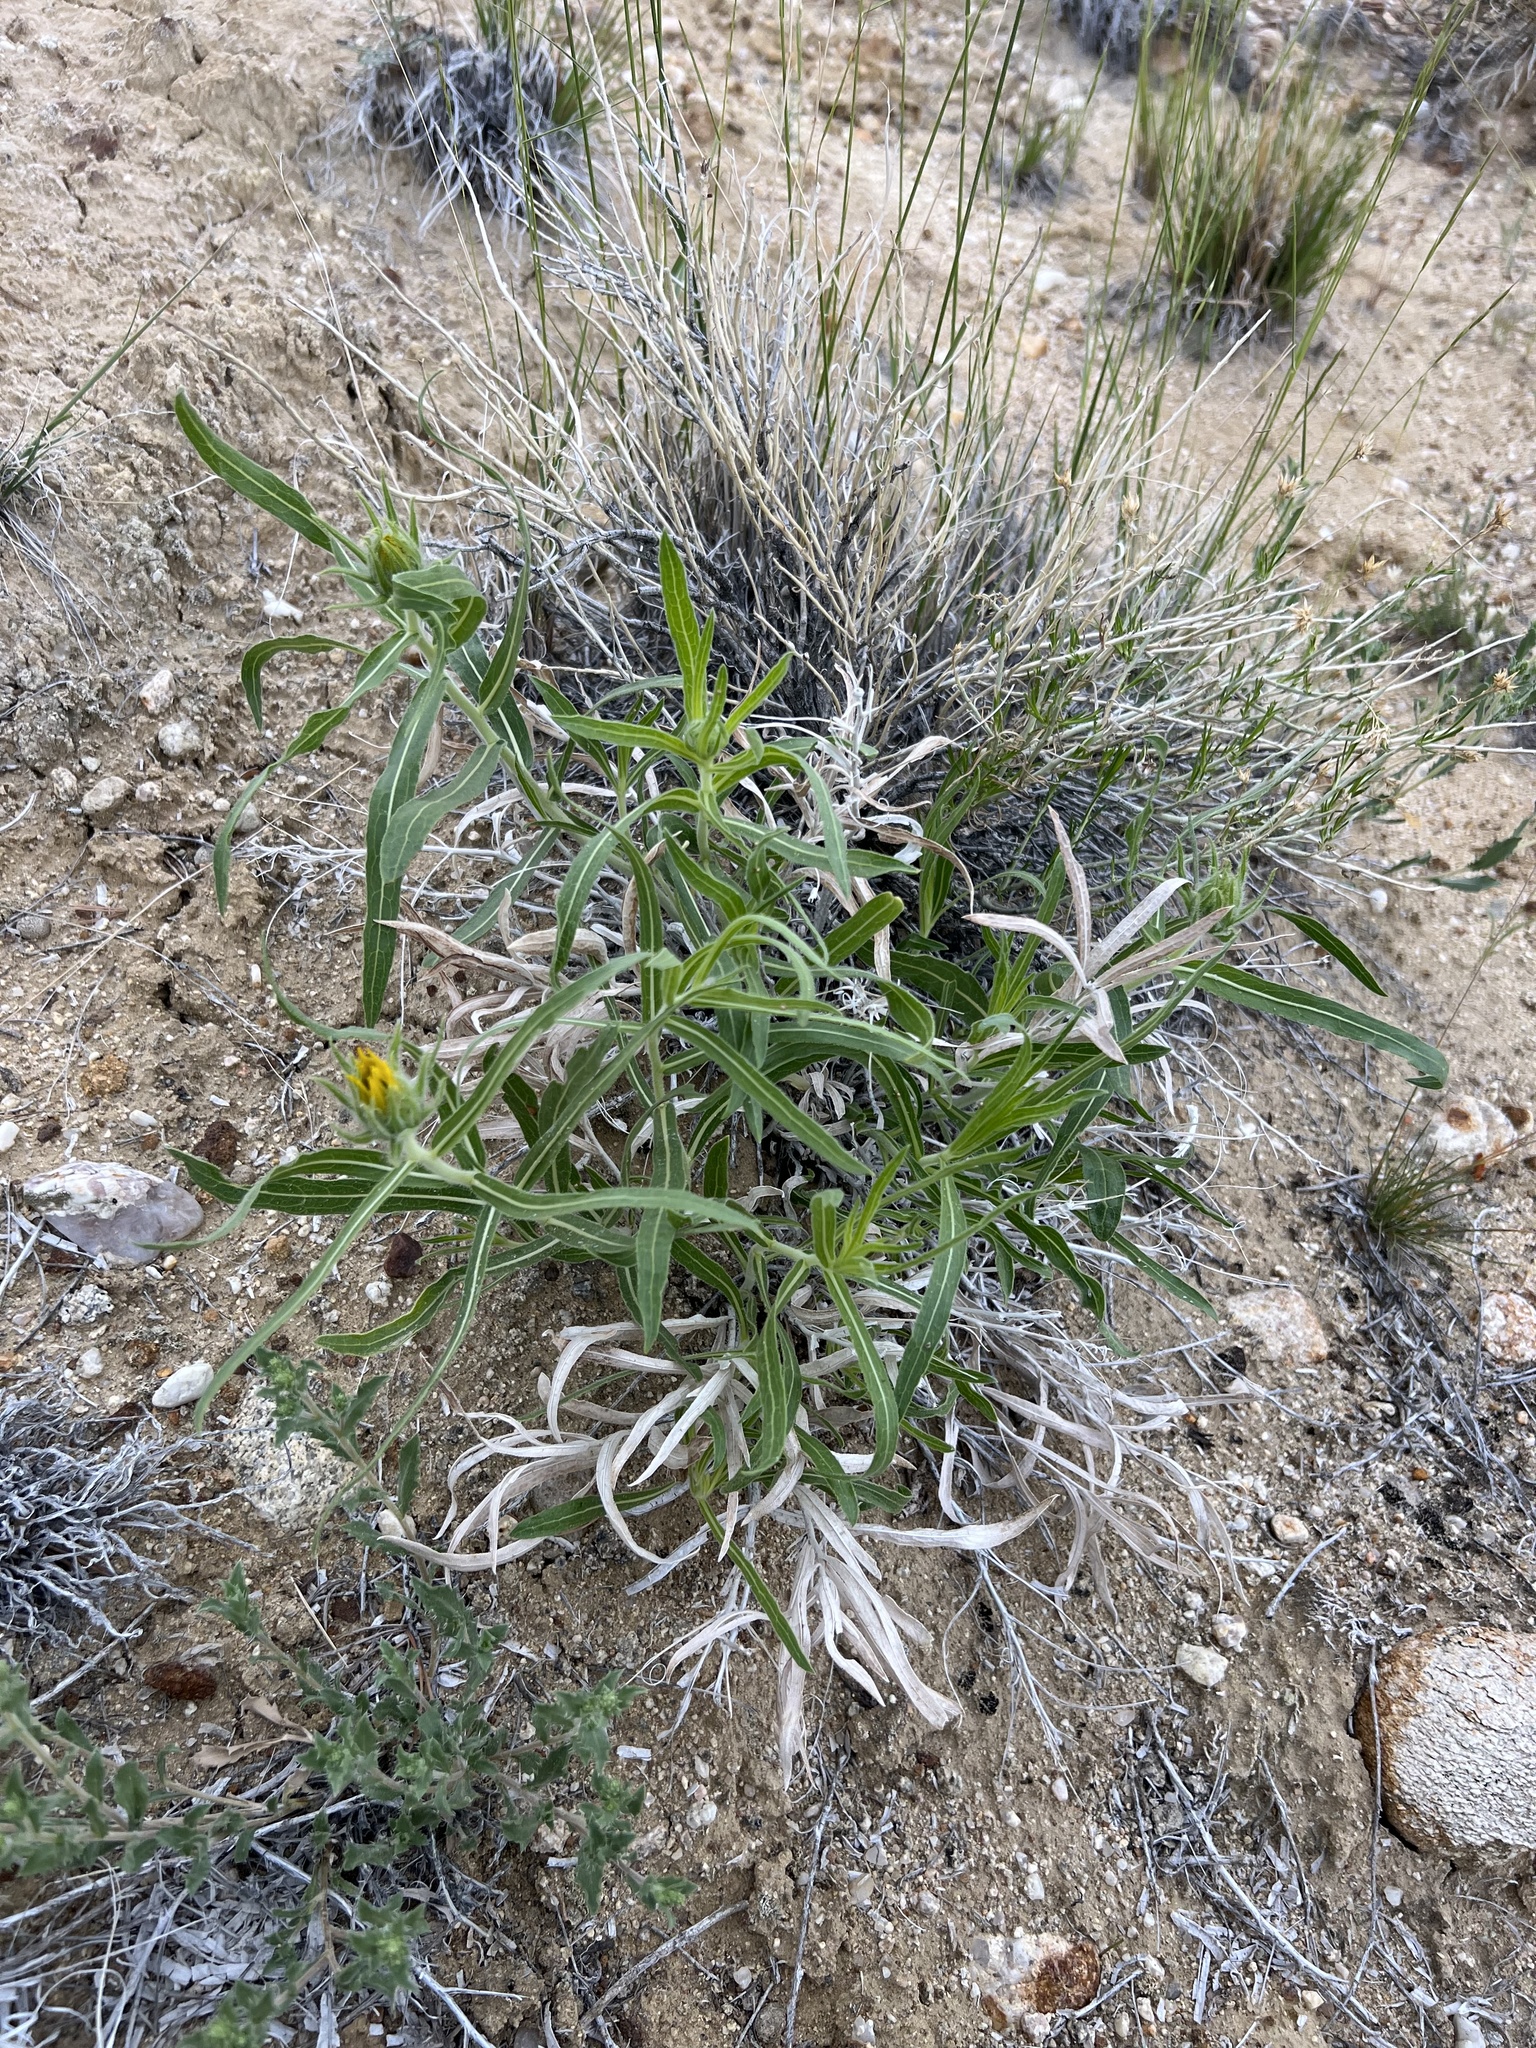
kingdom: Plantae
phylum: Tracheophyta
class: Magnoliopsida
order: Asterales
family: Asteraceae
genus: Scabrethia
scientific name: Scabrethia scabra
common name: Rough mules's-ears
